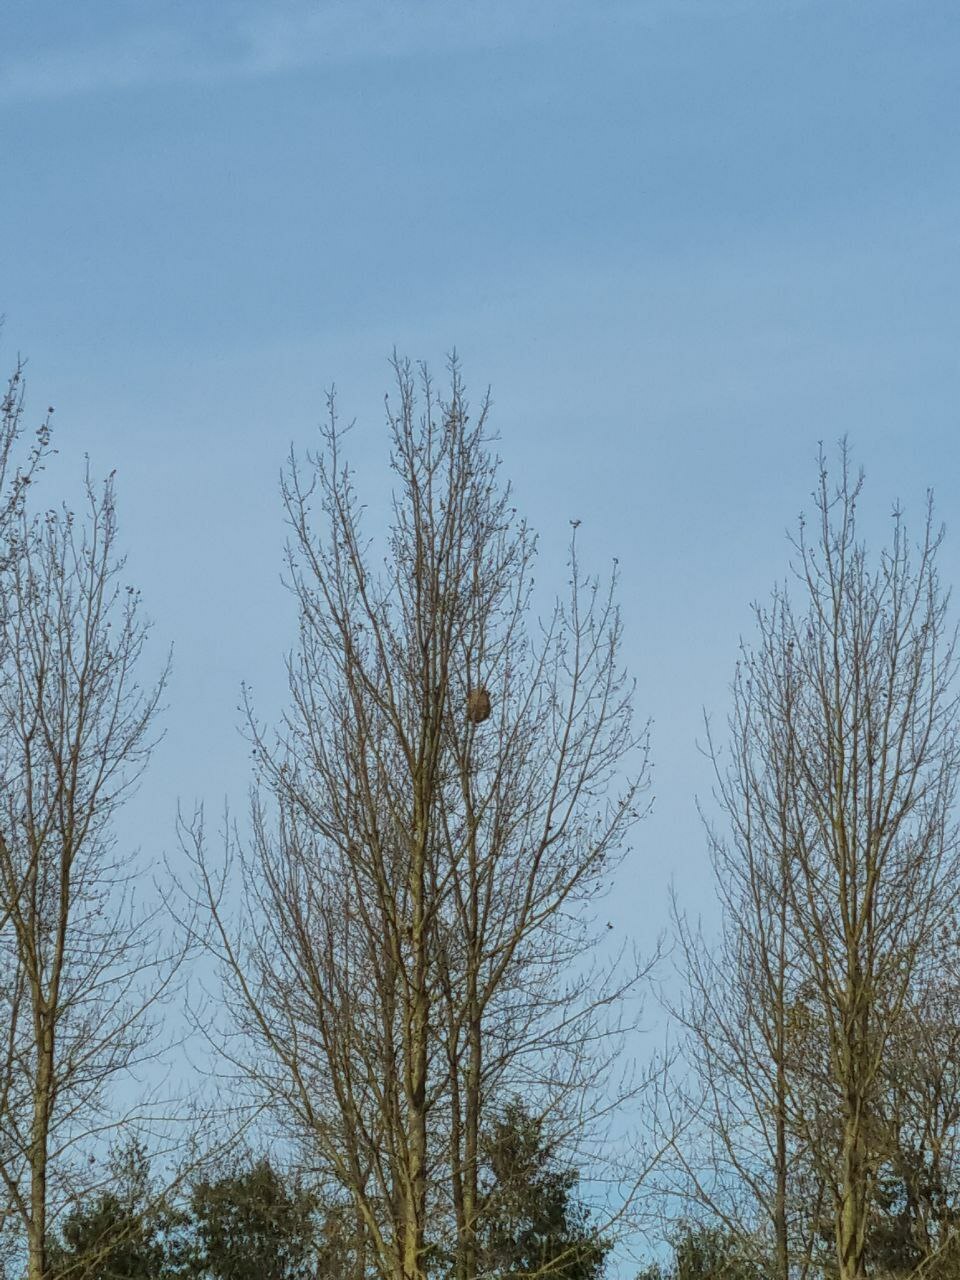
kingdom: Animalia
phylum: Arthropoda
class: Insecta
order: Hymenoptera
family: Vespidae
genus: Vespa
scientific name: Vespa velutina
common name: Asian hornet
